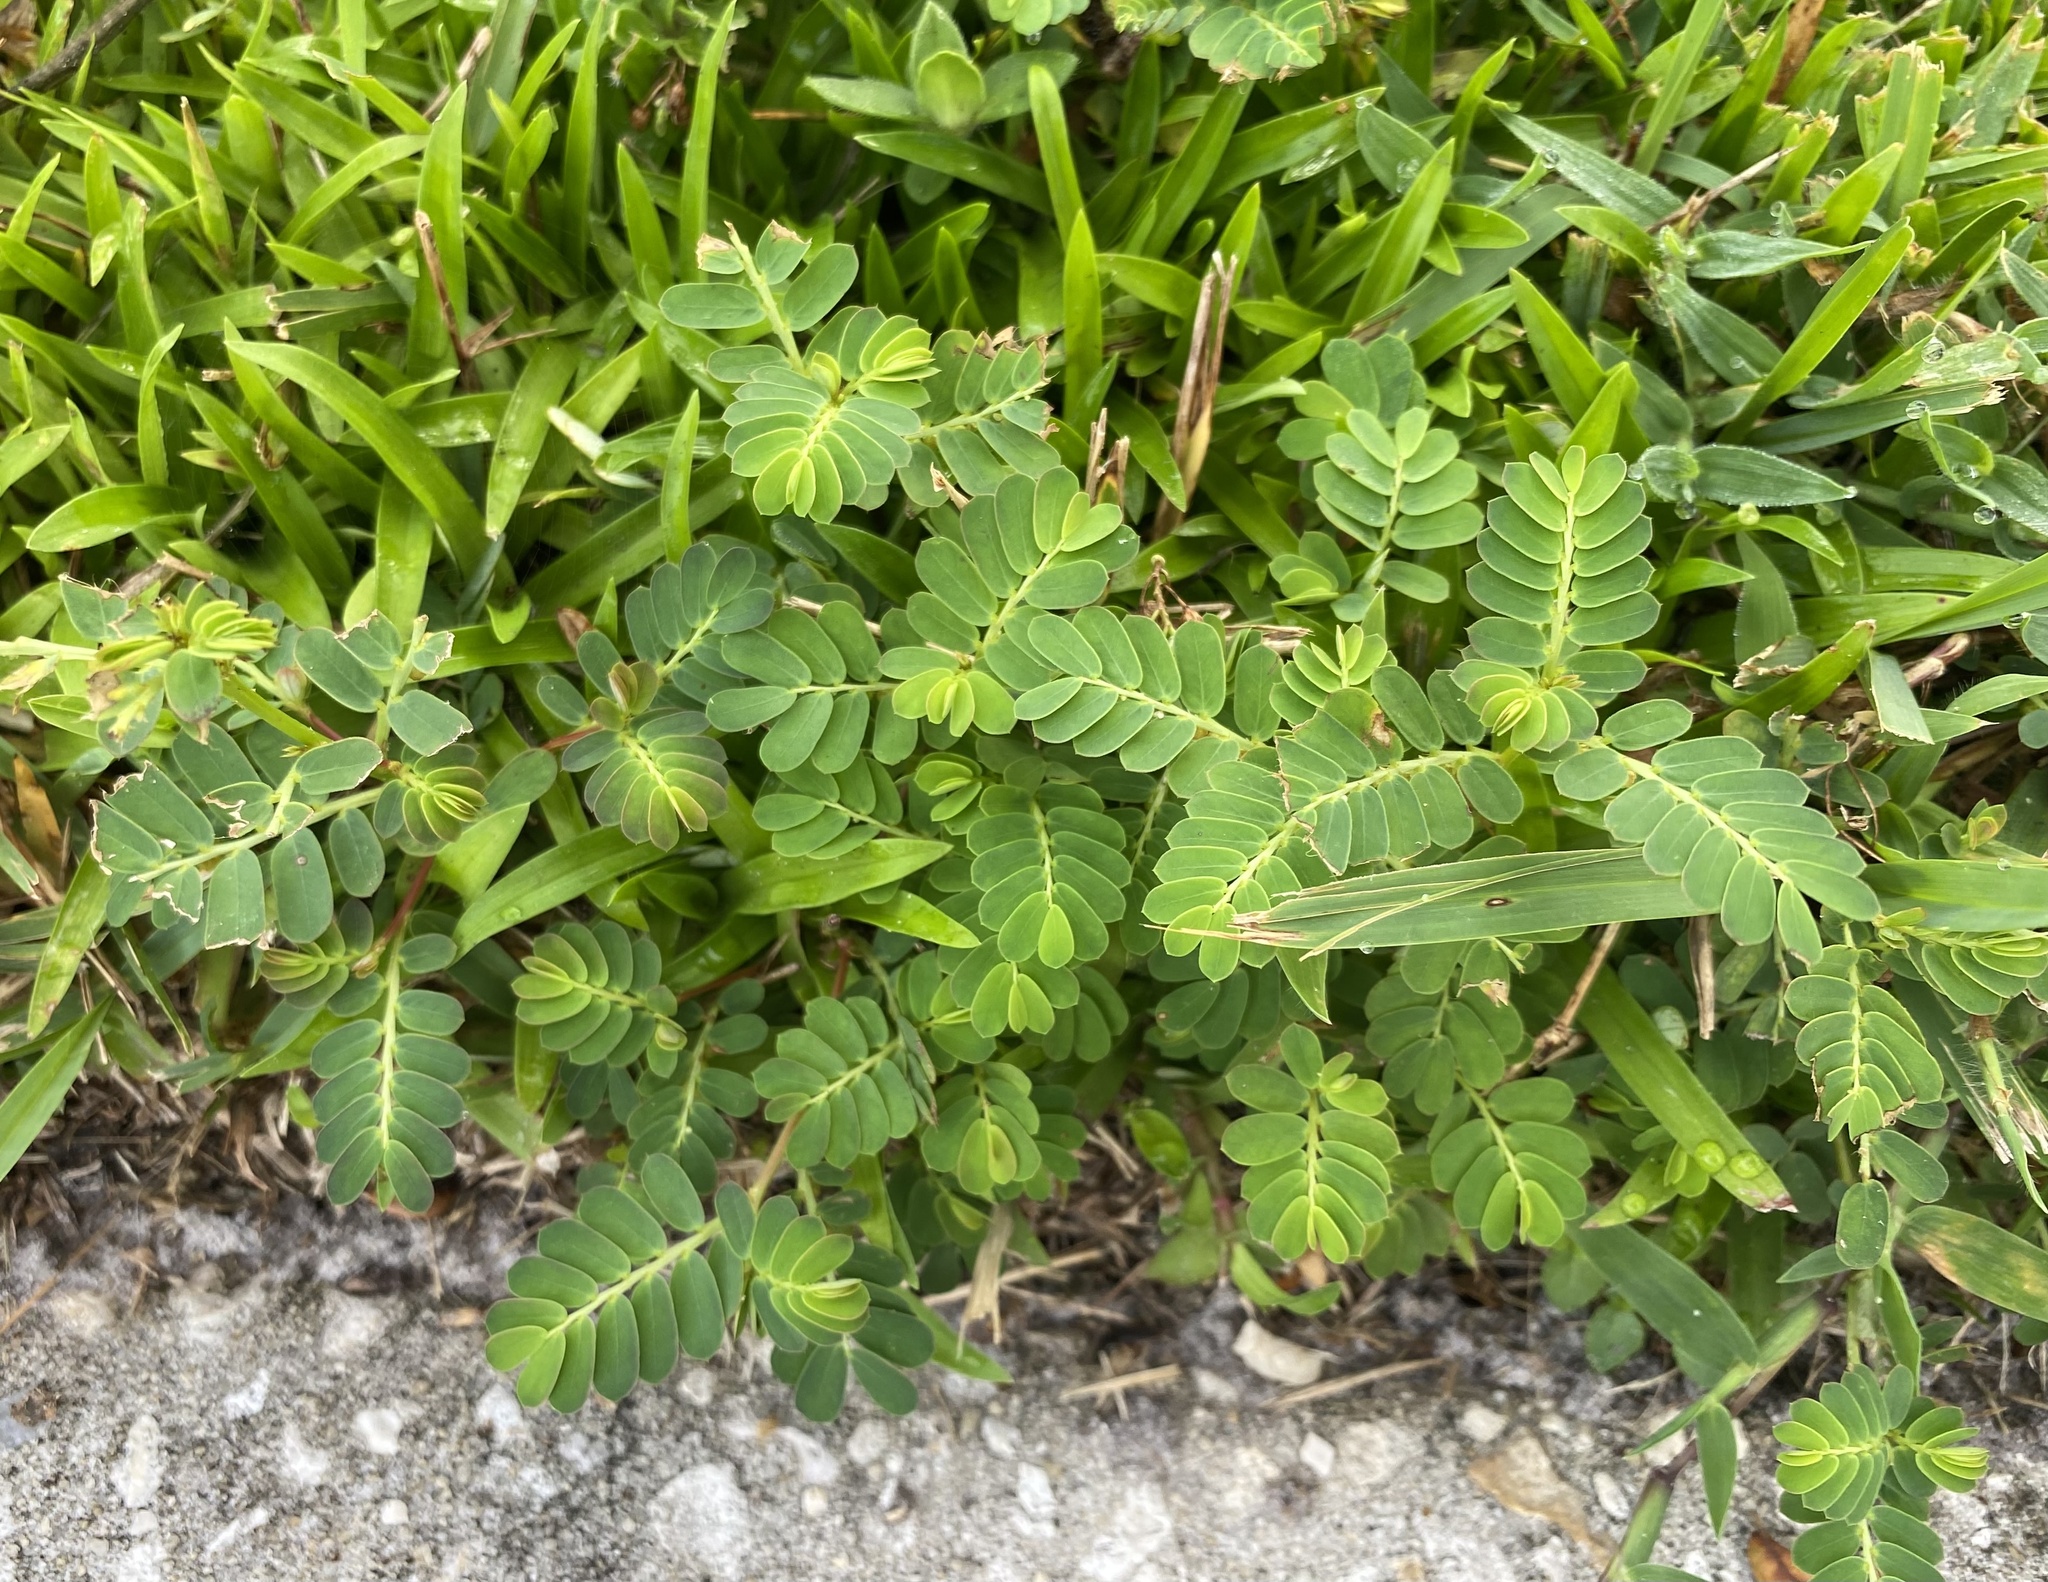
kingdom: Plantae
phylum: Tracheophyta
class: Magnoliopsida
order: Malpighiales
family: Phyllanthaceae
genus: Phyllanthus
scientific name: Phyllanthus urinaria
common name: Chamber bitter
